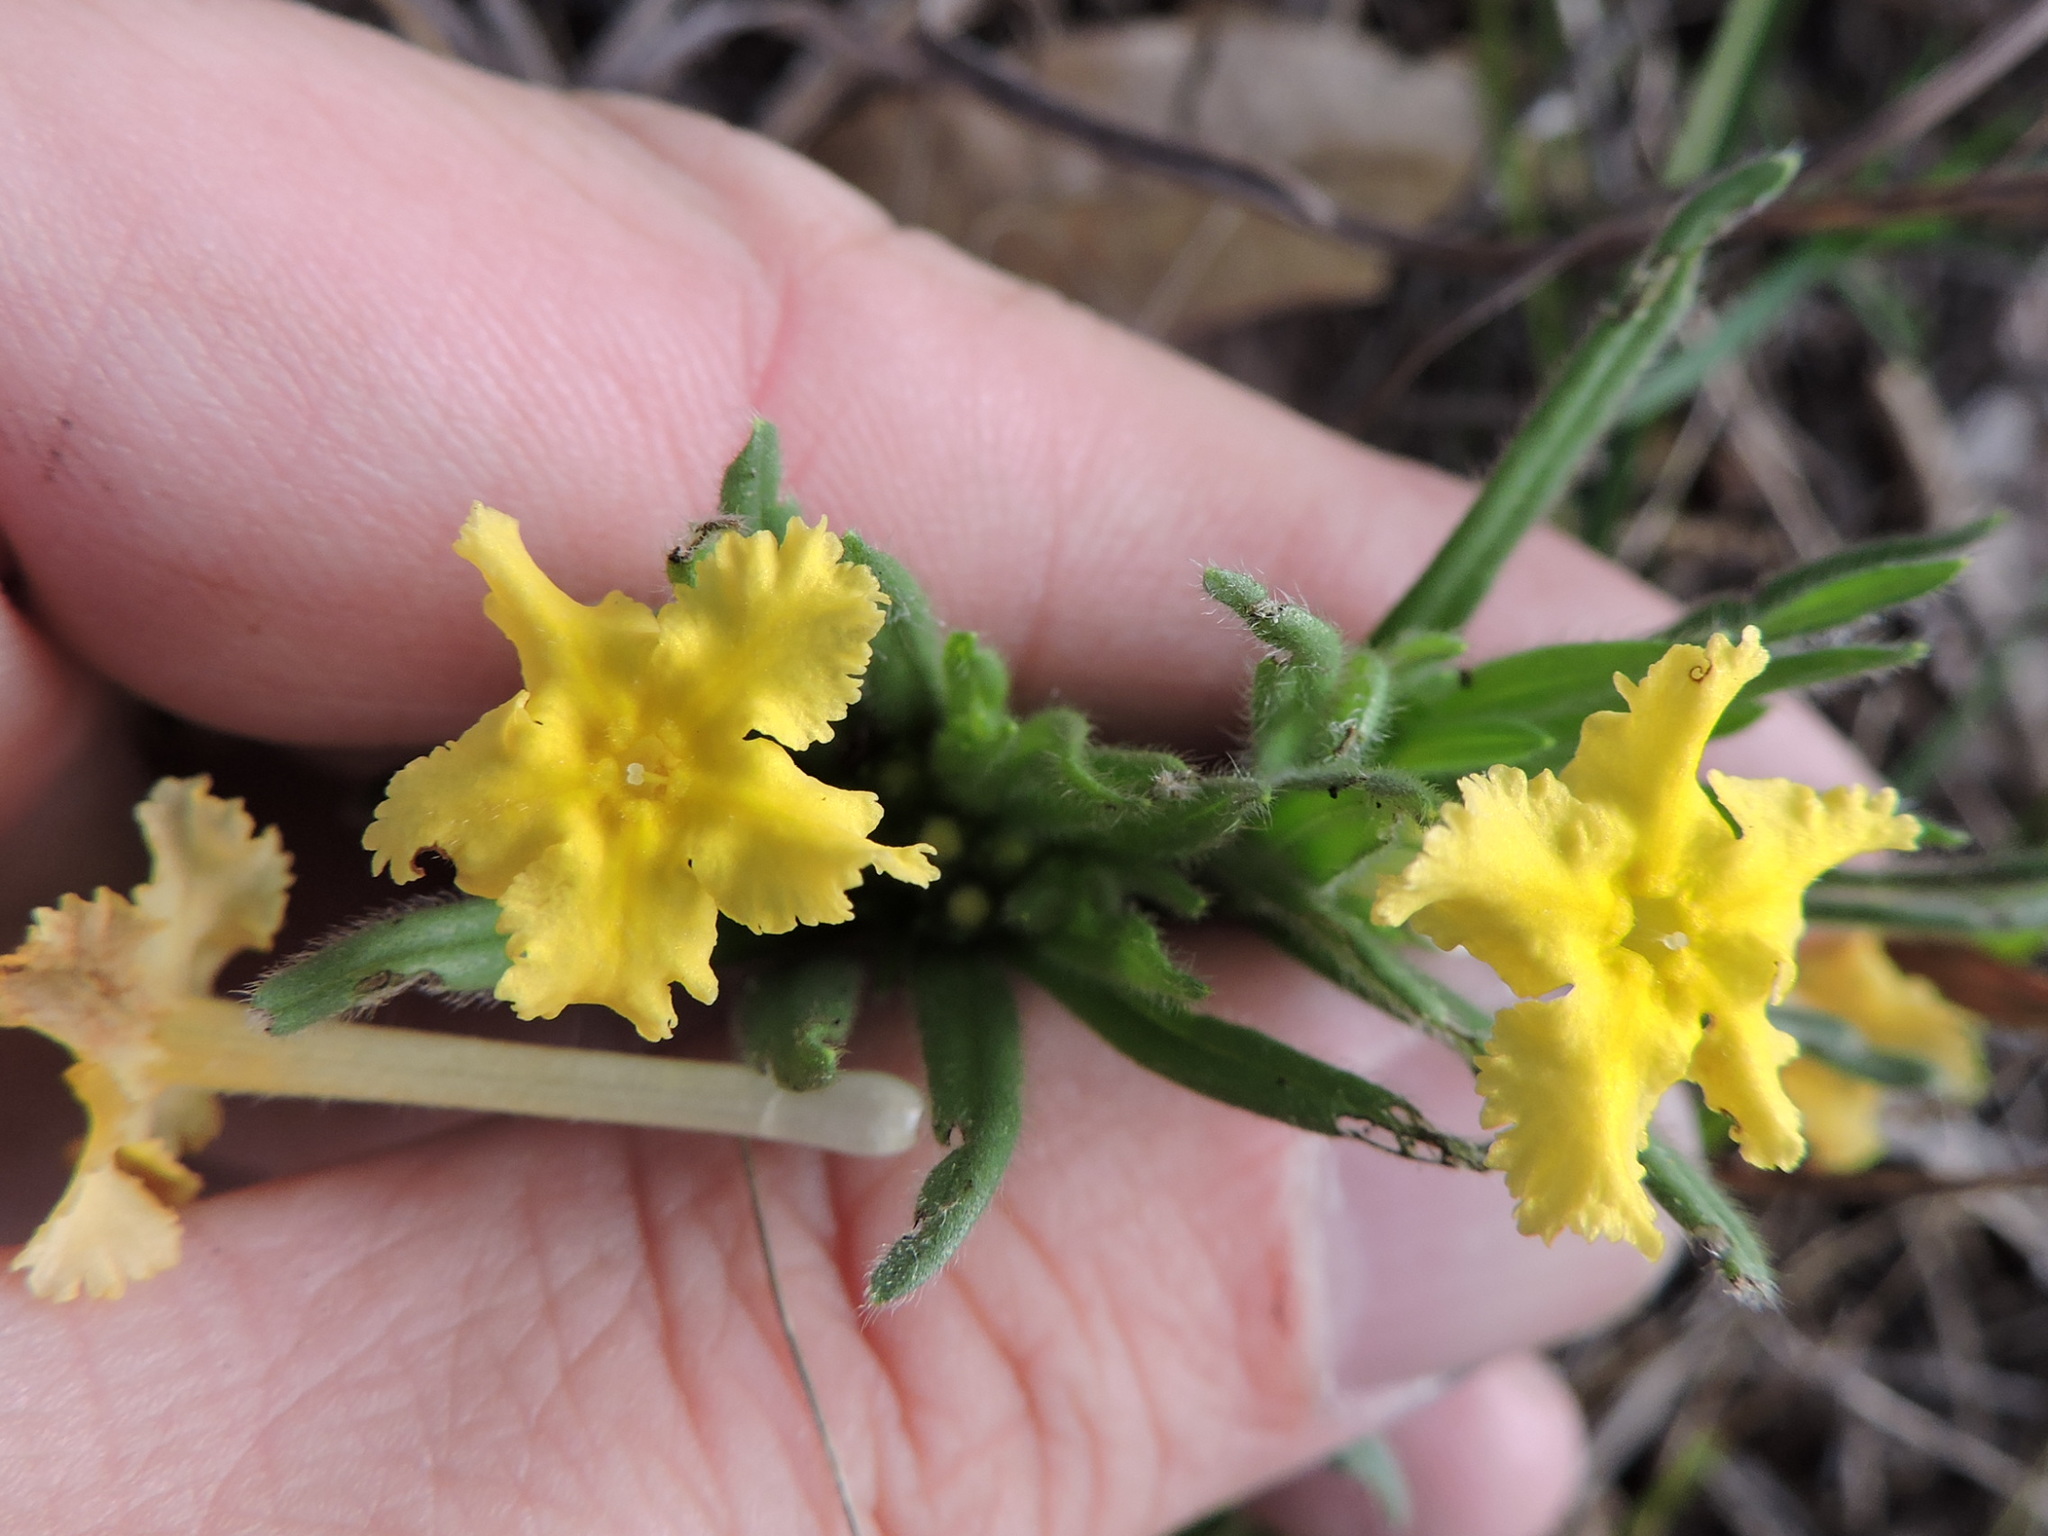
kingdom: Plantae
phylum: Tracheophyta
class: Magnoliopsida
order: Boraginales
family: Boraginaceae
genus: Lithospermum
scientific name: Lithospermum incisum
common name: Fringed gromwell
